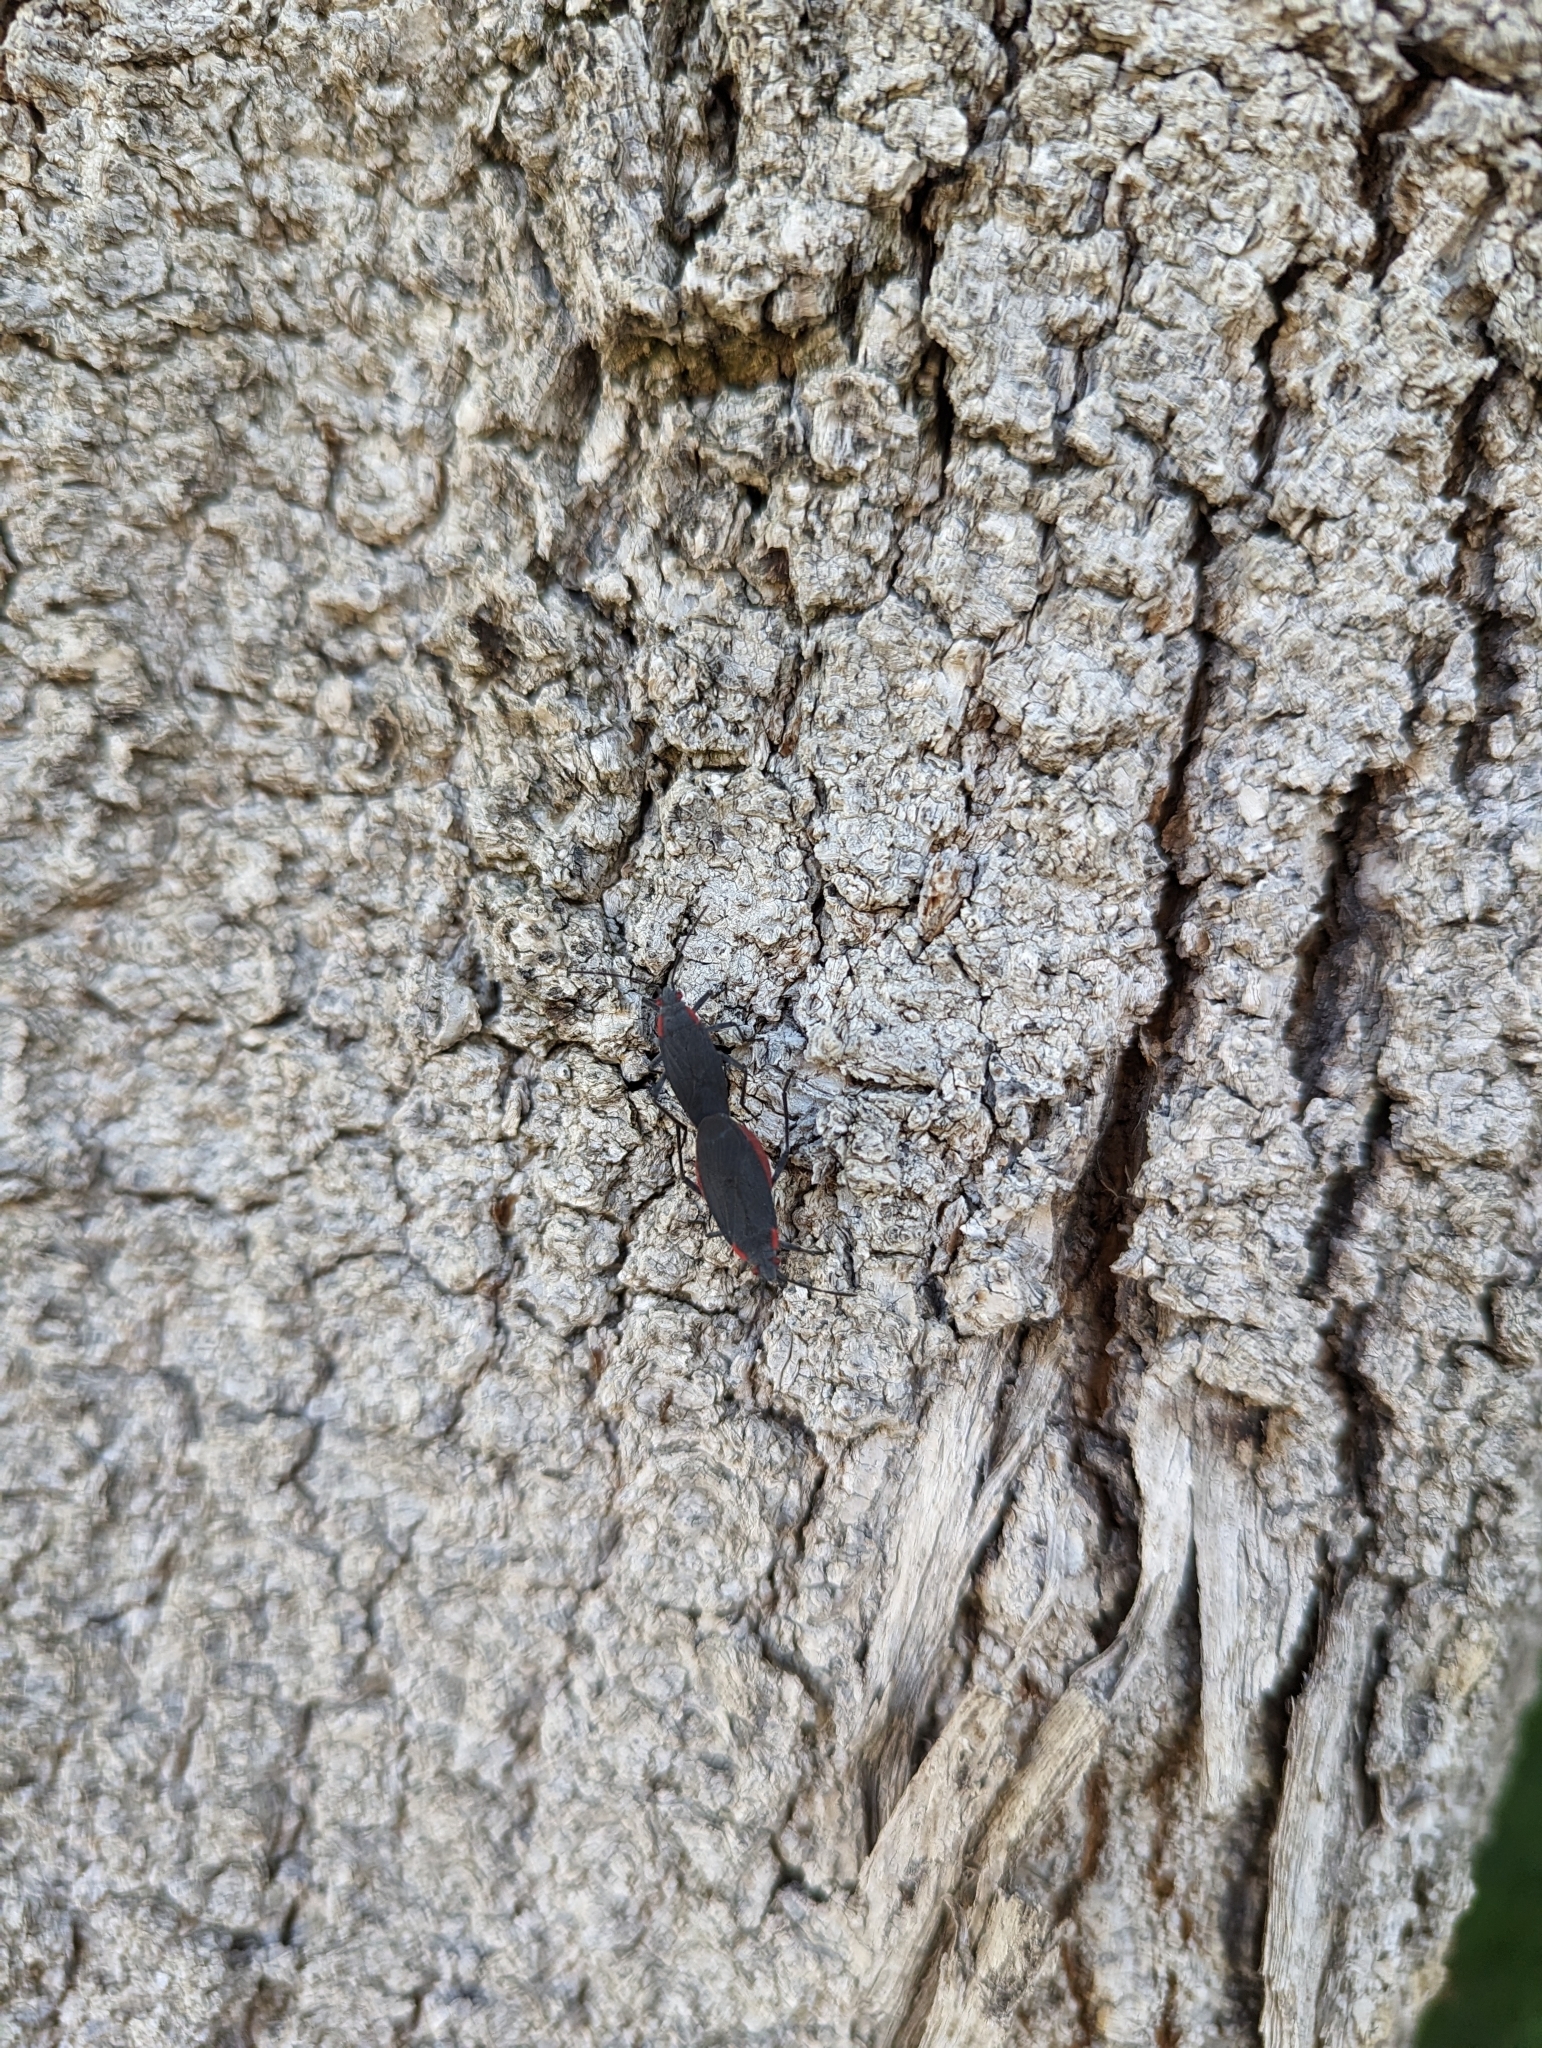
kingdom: Animalia
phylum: Arthropoda
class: Insecta
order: Hemiptera
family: Rhopalidae
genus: Jadera
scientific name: Jadera haematoloma
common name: Red-shouldered bug
